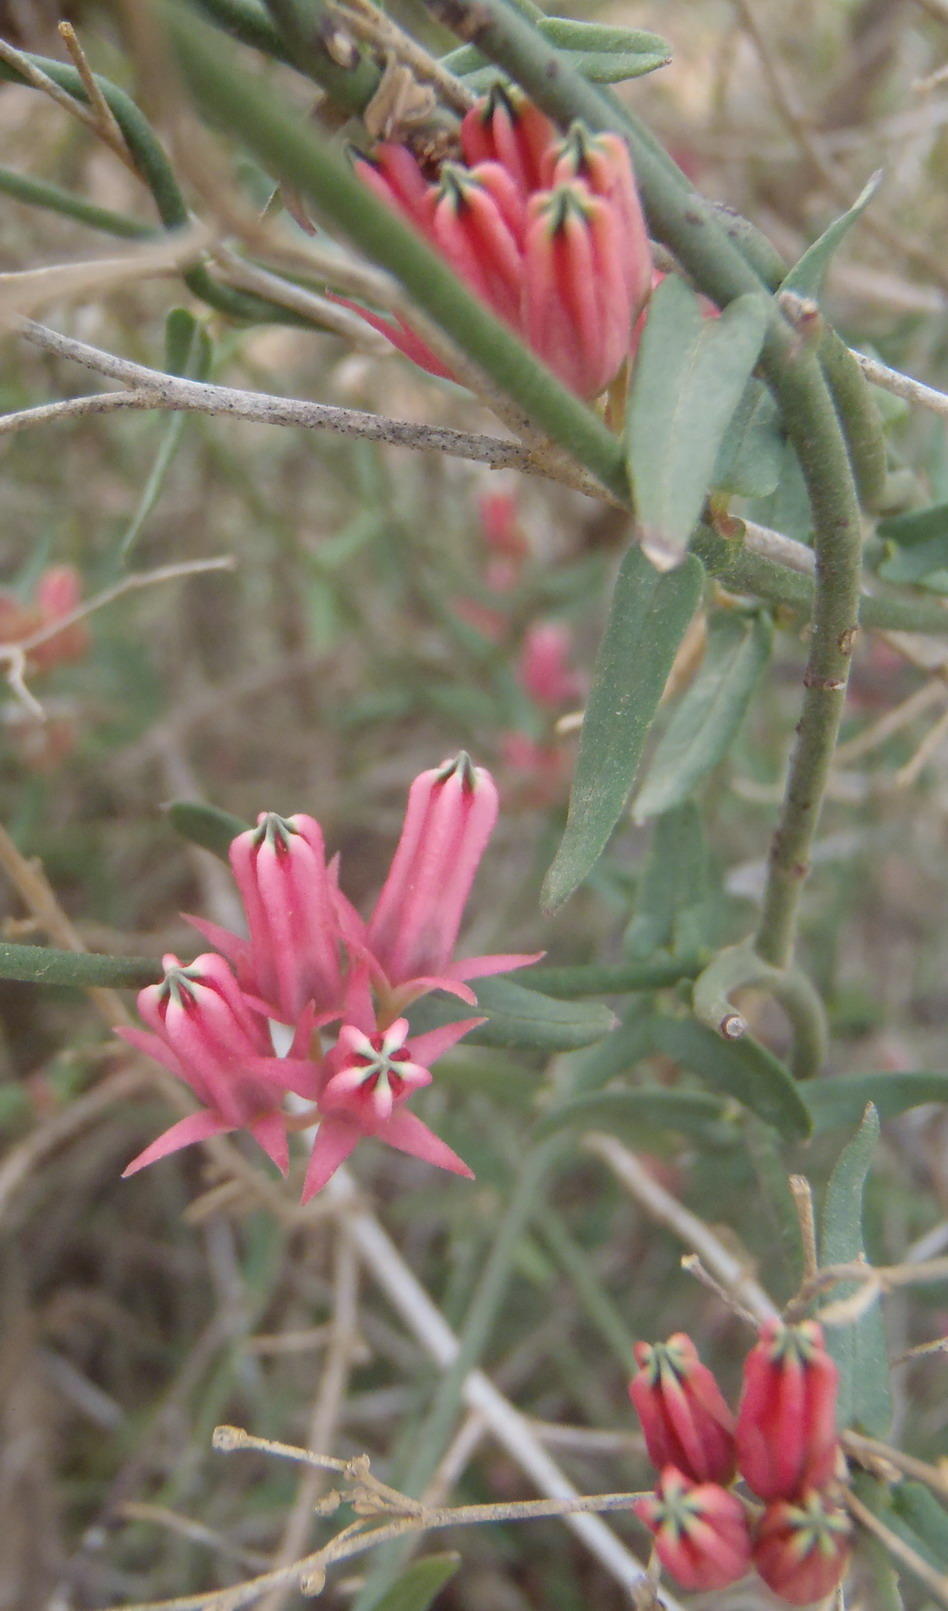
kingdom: Plantae
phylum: Tracheophyta
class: Magnoliopsida
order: Gentianales
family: Apocynaceae
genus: Microloma
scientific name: Microloma sagittatum
